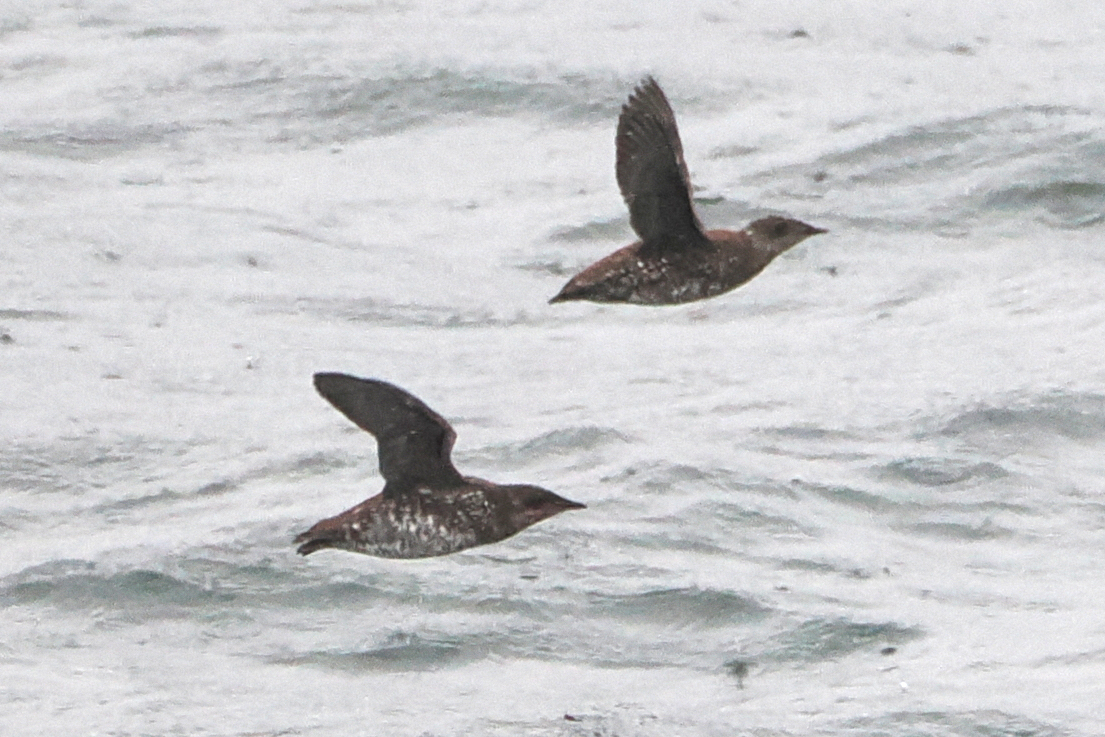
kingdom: Animalia
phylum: Chordata
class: Aves
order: Charadriiformes
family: Alcidae
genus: Brachyramphus
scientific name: Brachyramphus marmoratus
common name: Marbled murrelet
